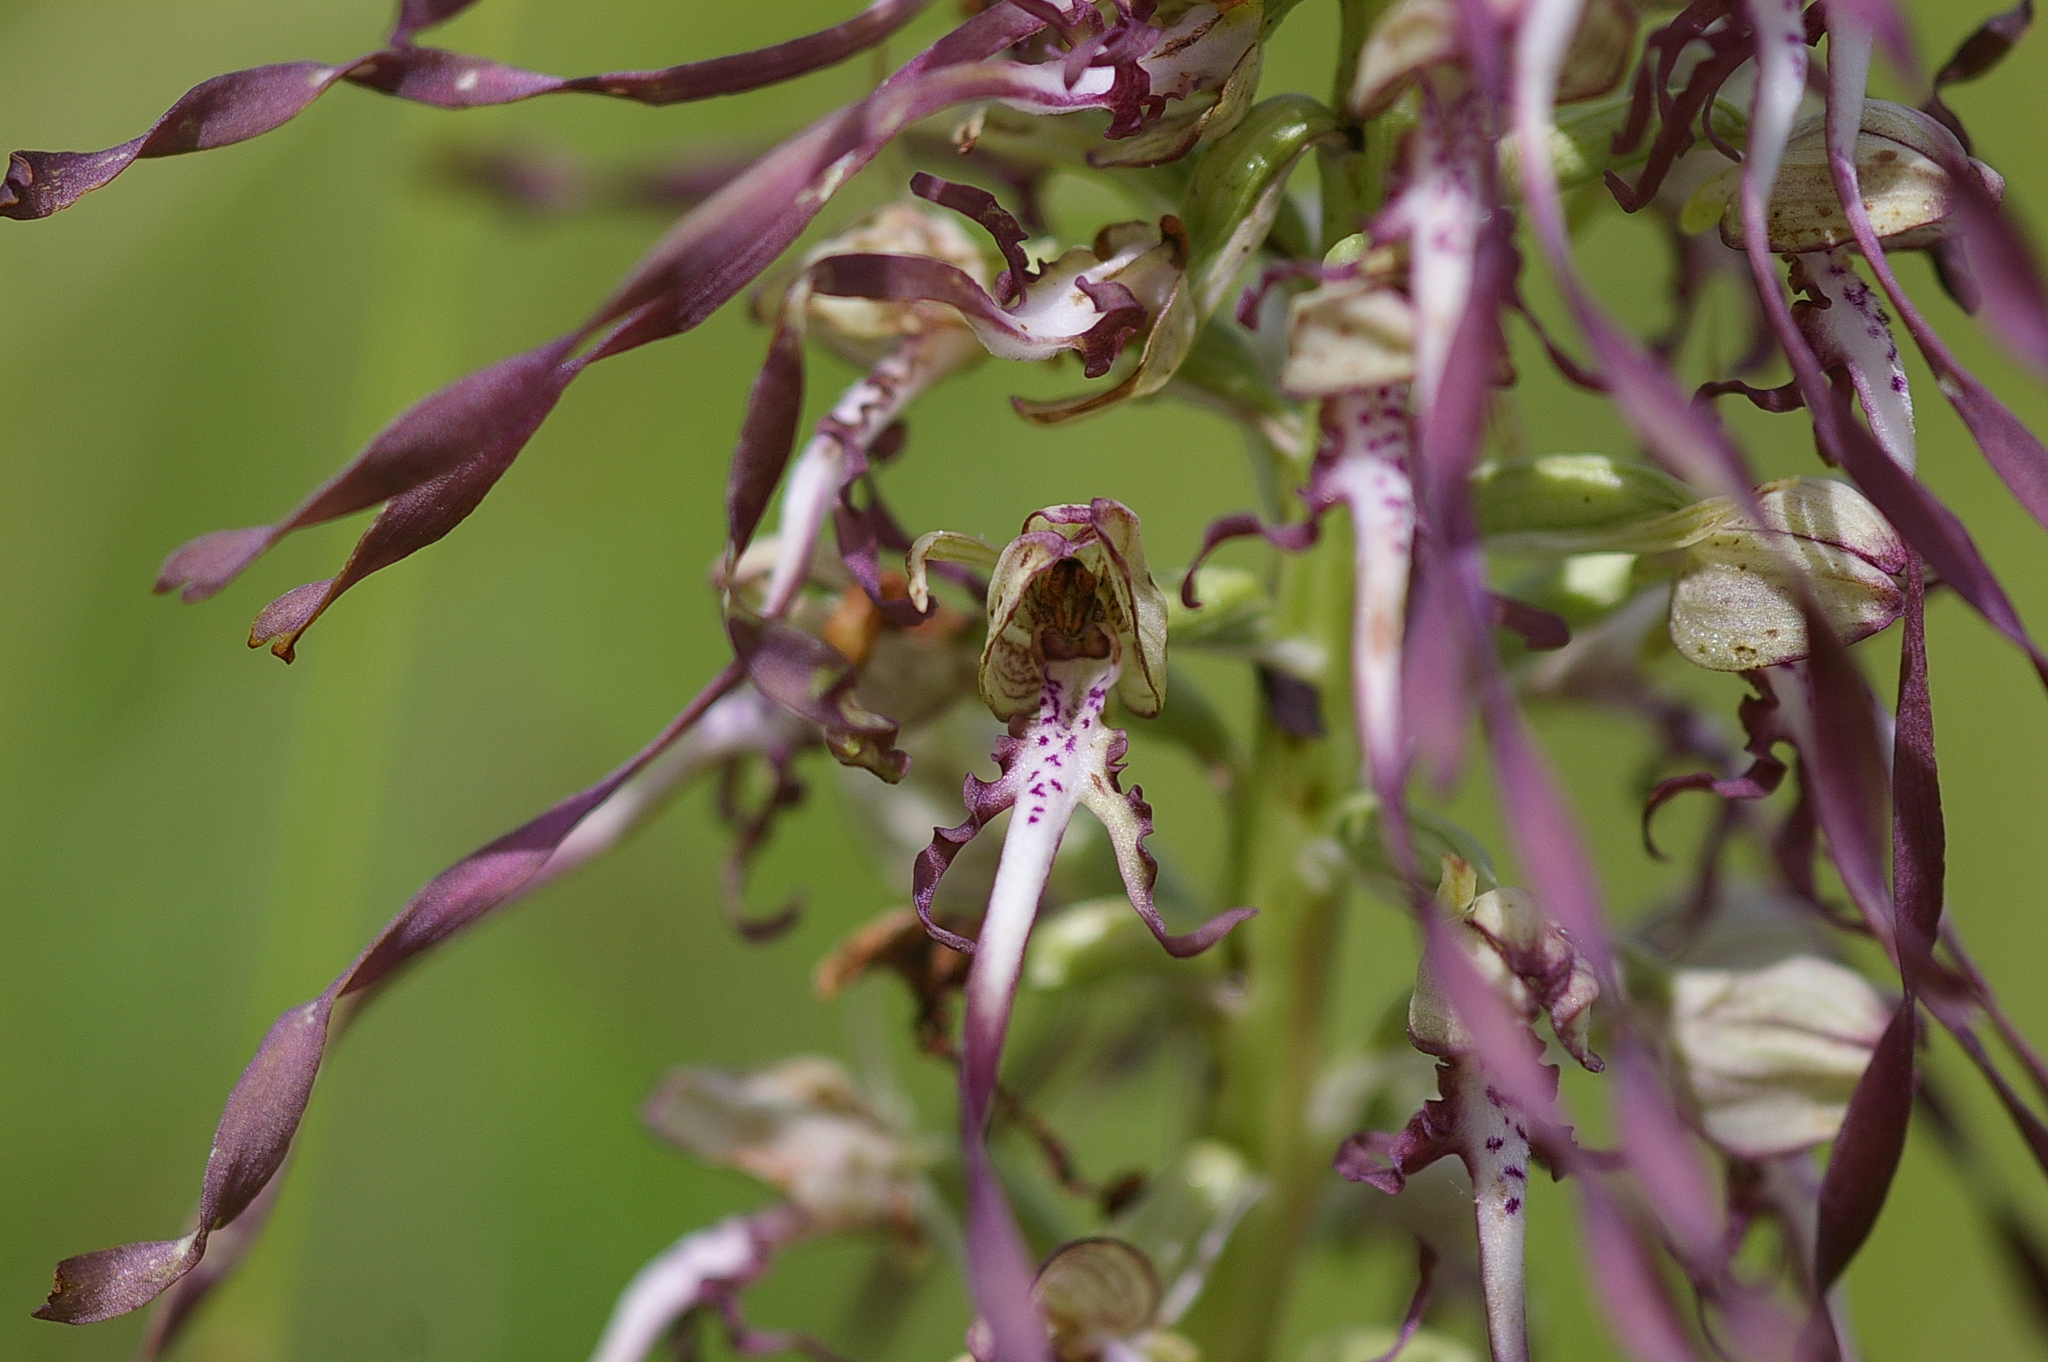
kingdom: Plantae
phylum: Tracheophyta
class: Liliopsida
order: Asparagales
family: Orchidaceae
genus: Himantoglossum
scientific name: Himantoglossum hircinum
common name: Lizard orchid
